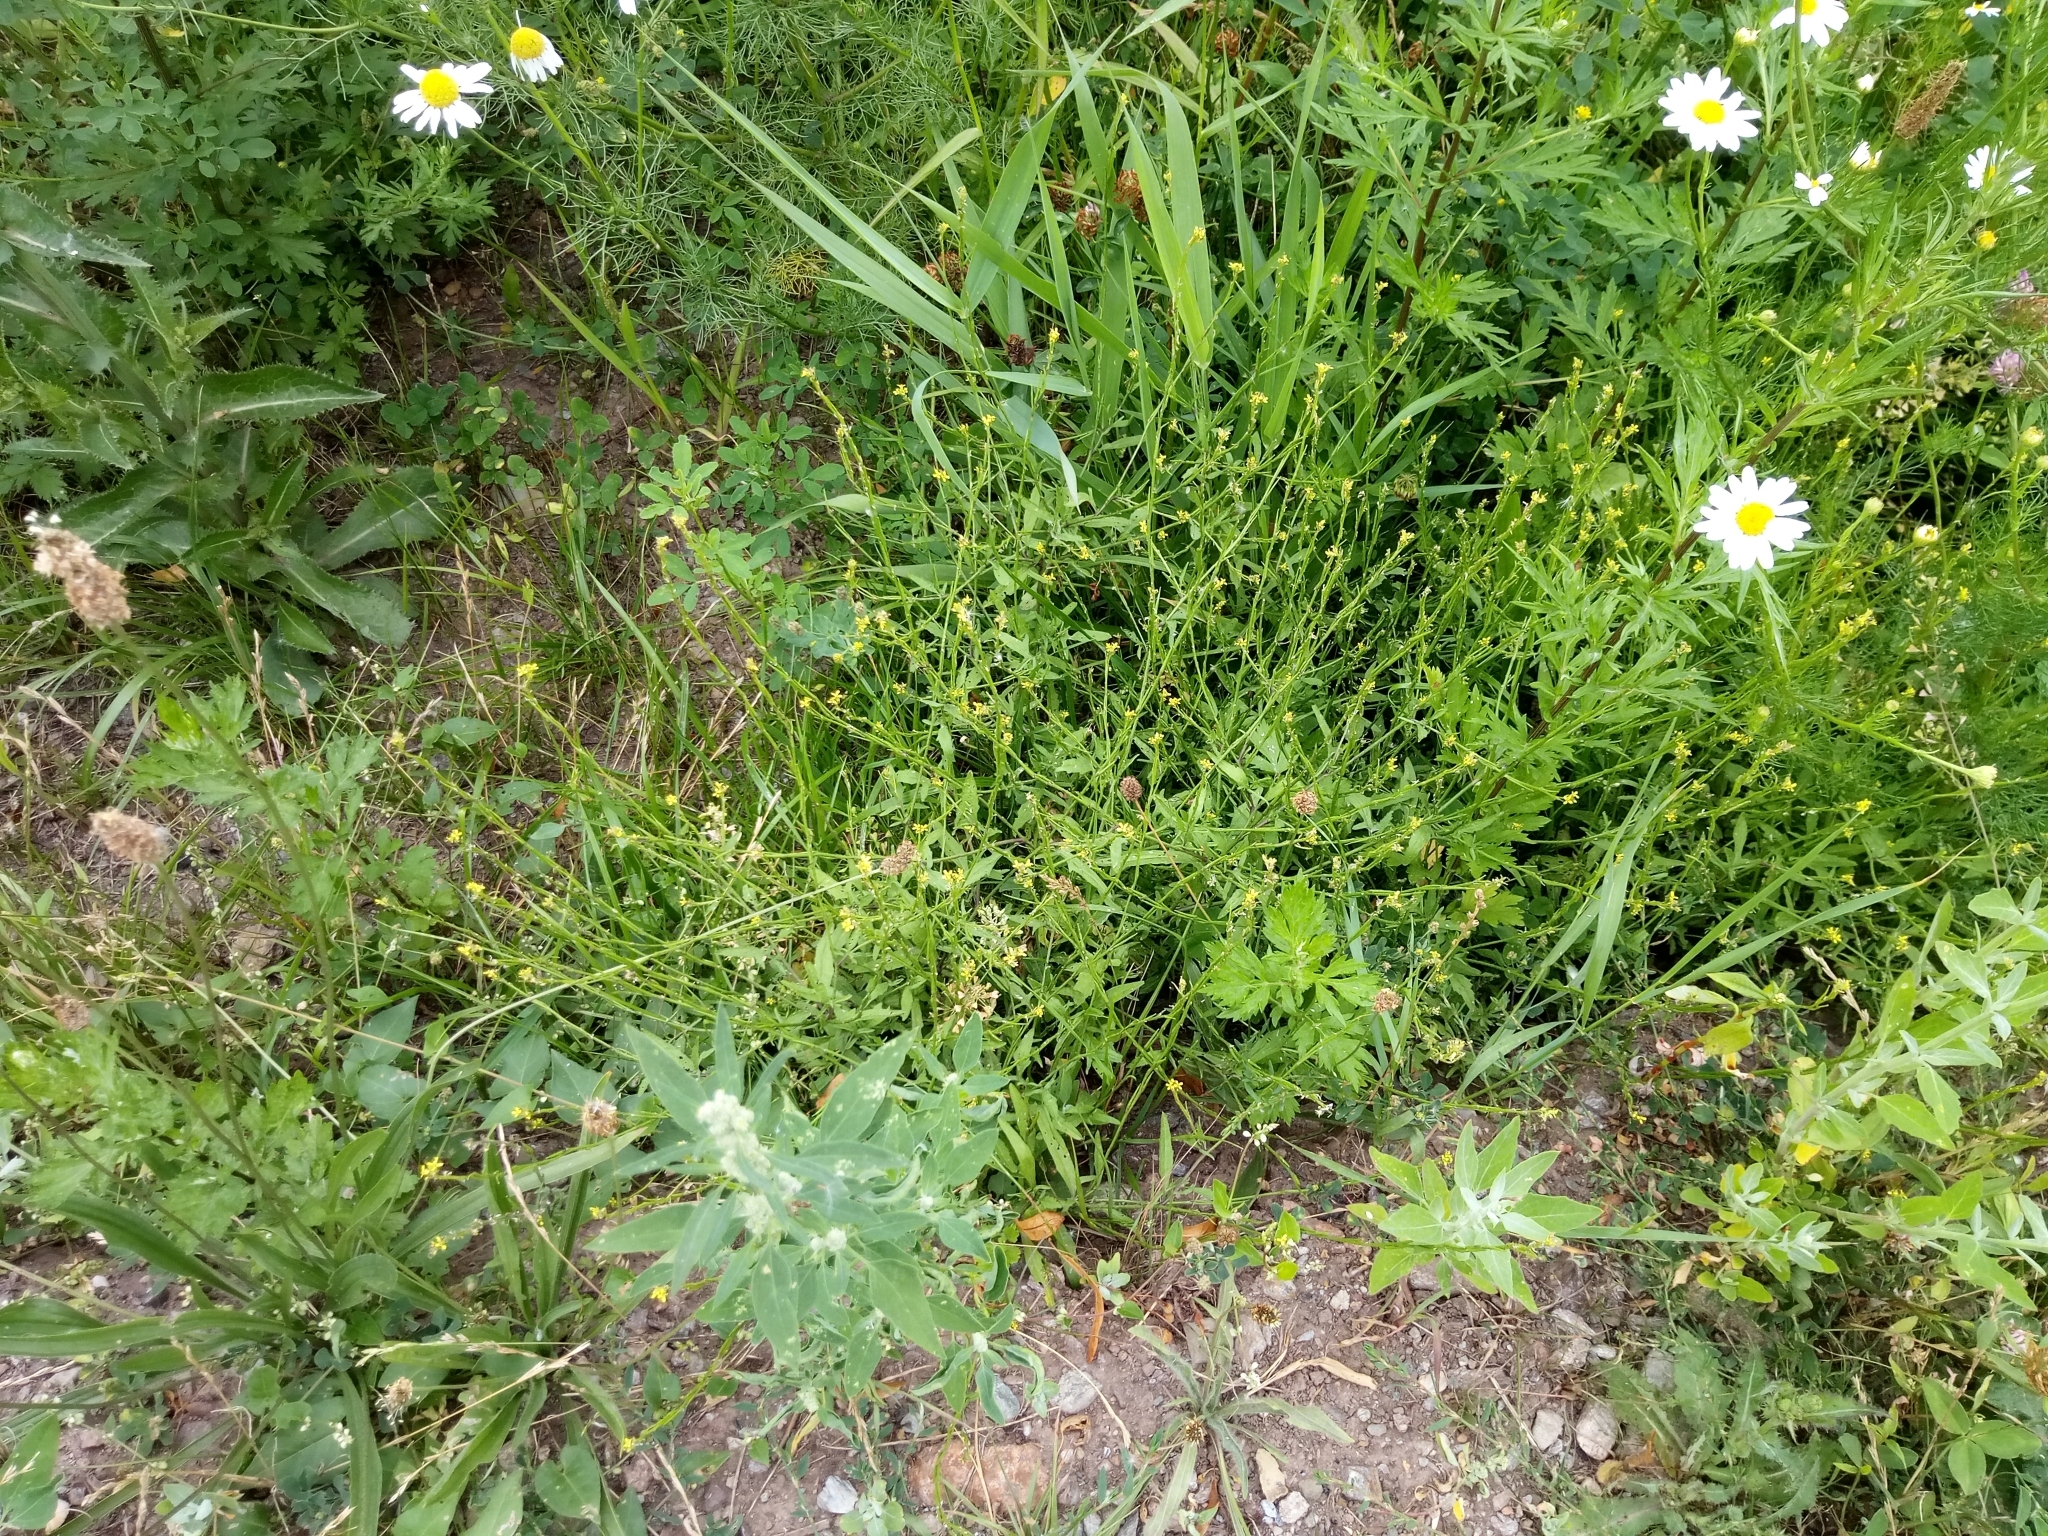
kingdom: Plantae
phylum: Tracheophyta
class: Magnoliopsida
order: Brassicales
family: Brassicaceae
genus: Sisymbrium
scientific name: Sisymbrium officinale
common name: Hedge mustard
